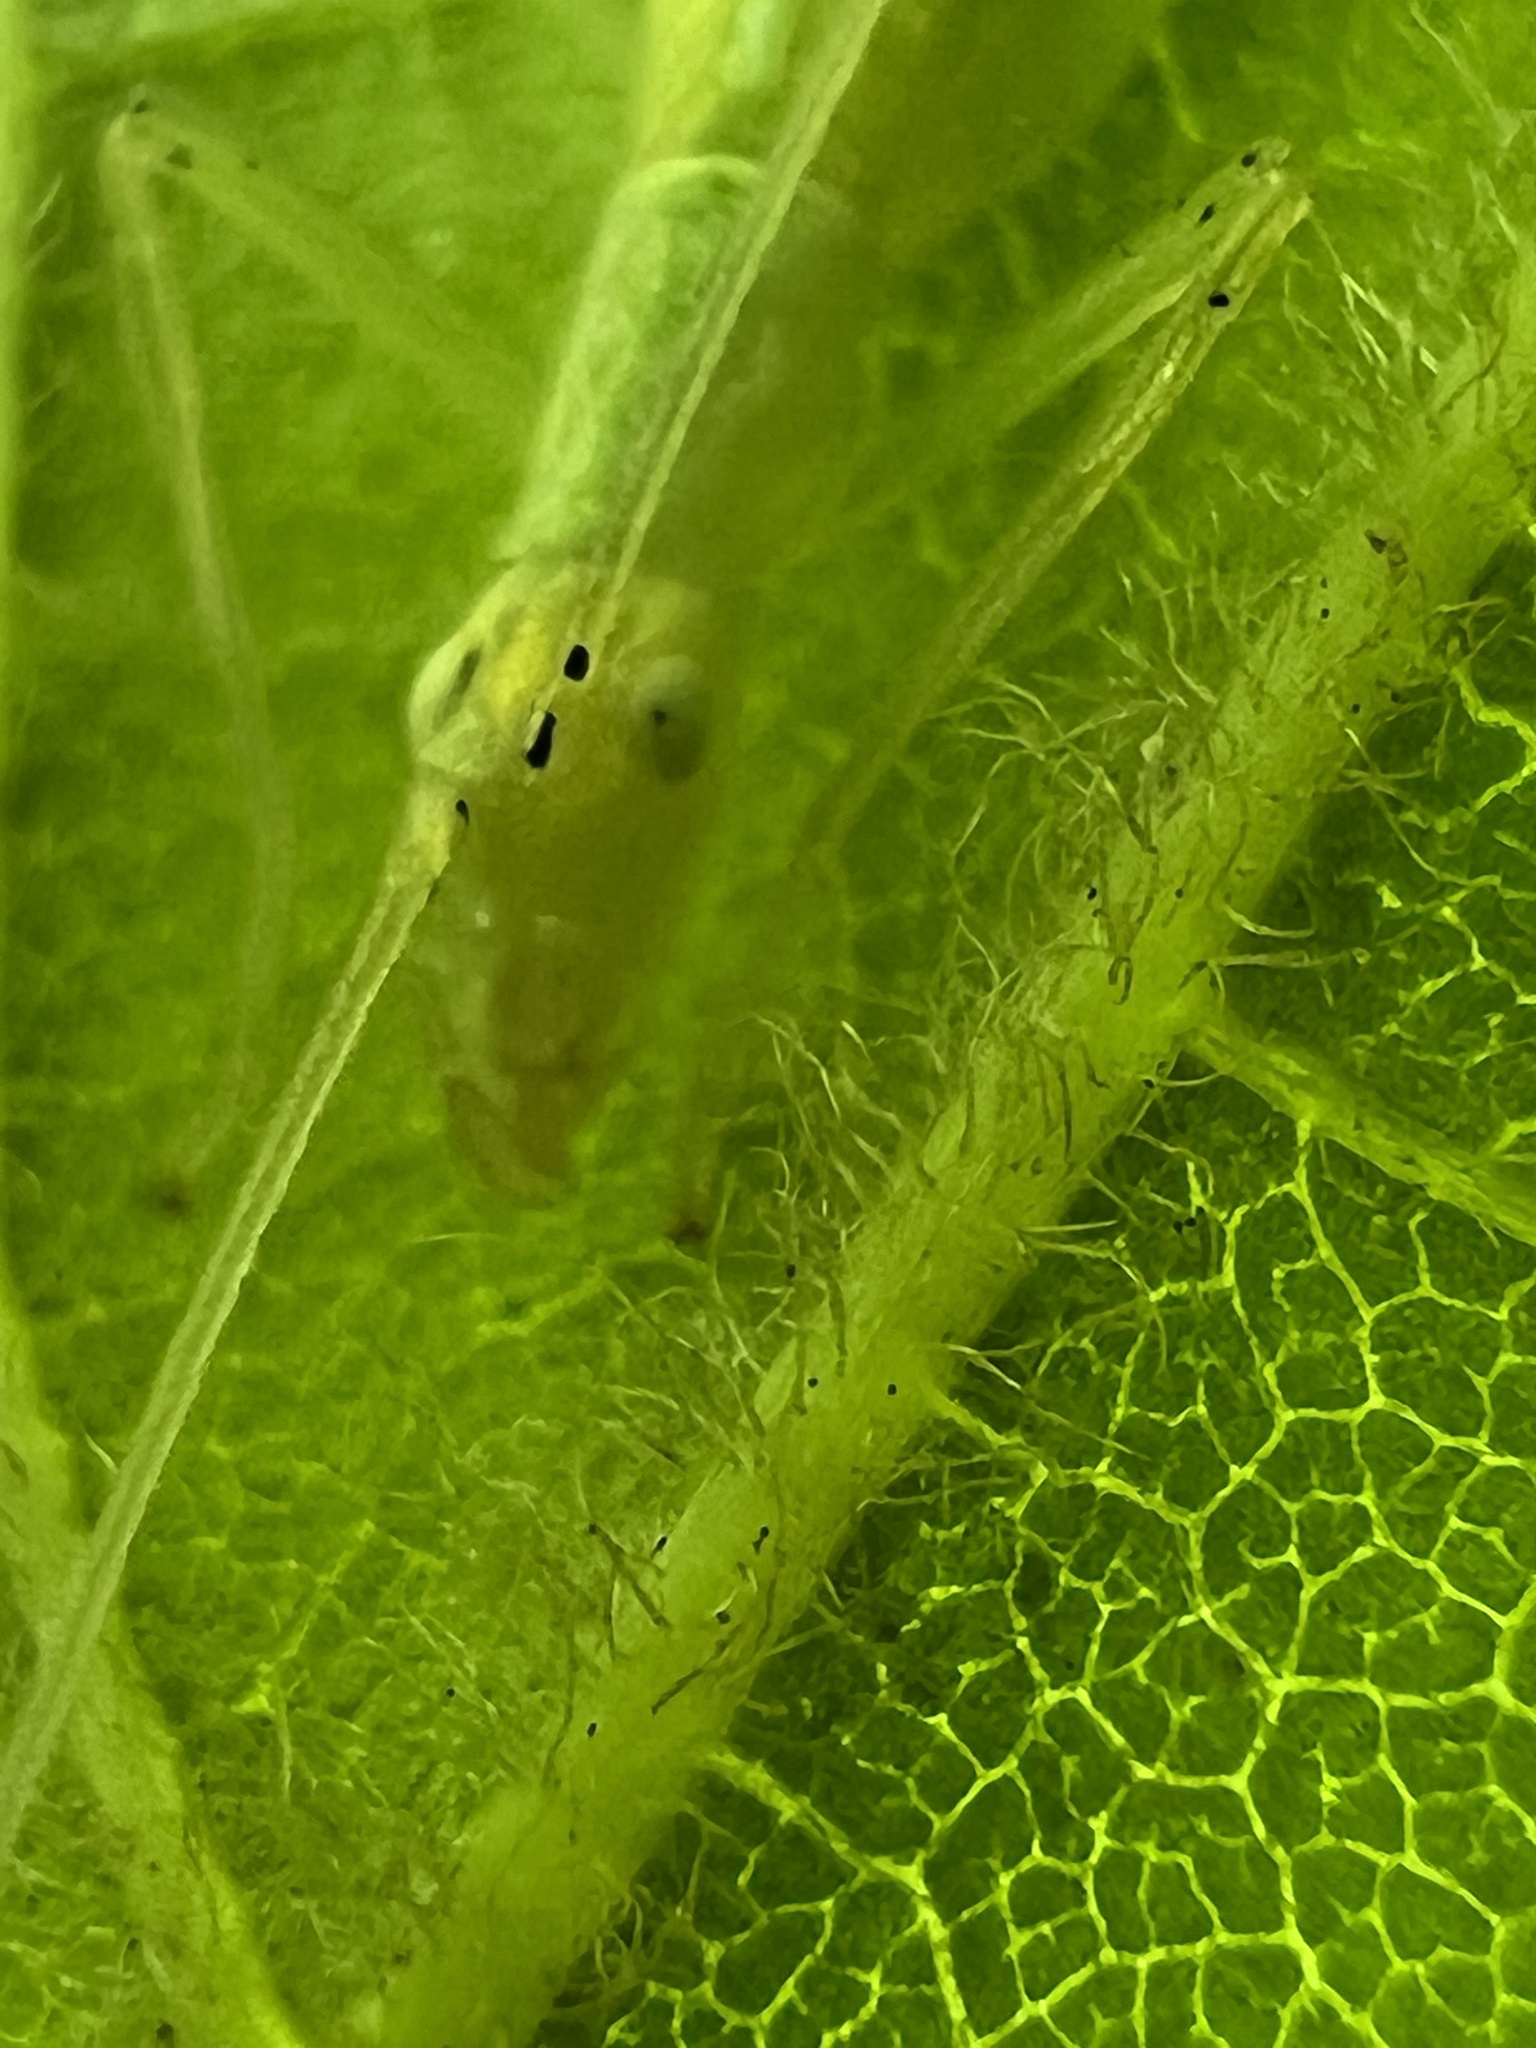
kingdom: Animalia
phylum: Arthropoda
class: Insecta
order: Orthoptera
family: Gryllidae
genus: Oecanthus
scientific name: Oecanthus niveus
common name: Narrow-winged tree cricket
